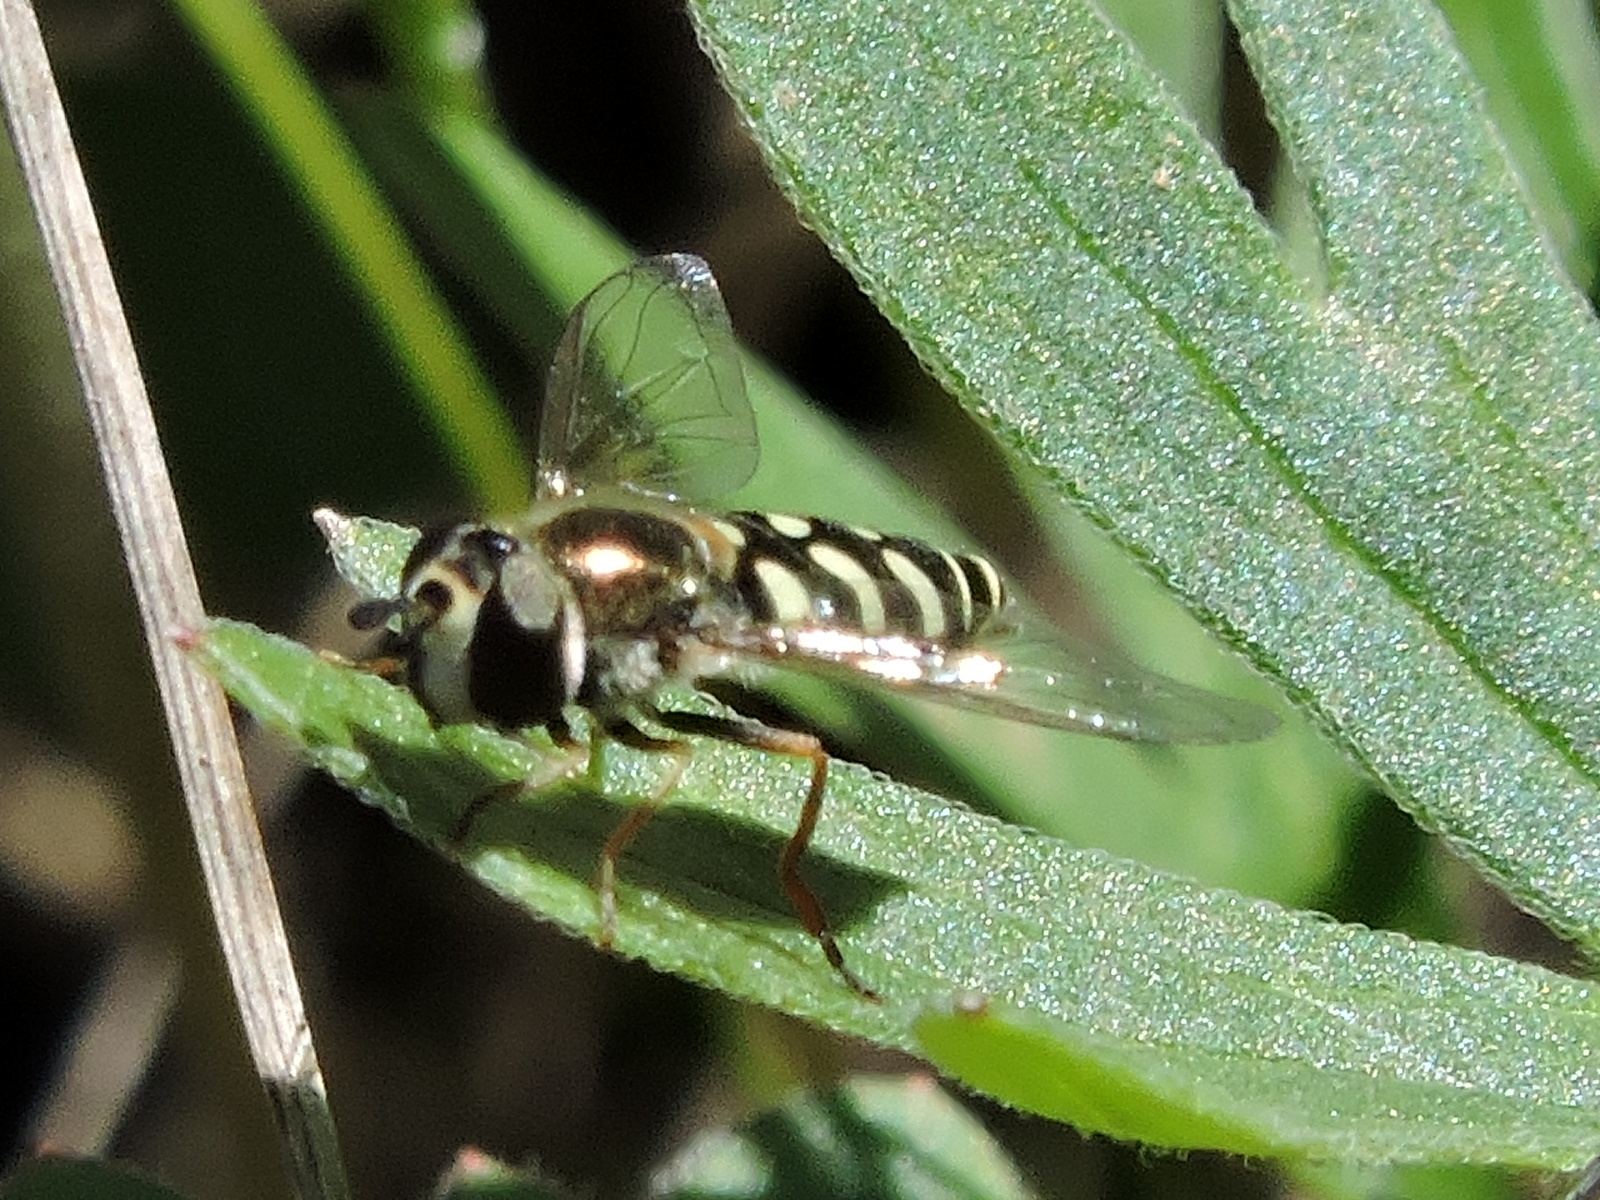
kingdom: Animalia
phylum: Arthropoda
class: Insecta
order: Diptera
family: Syrphidae
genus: Eupeodes
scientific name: Eupeodes volucris
